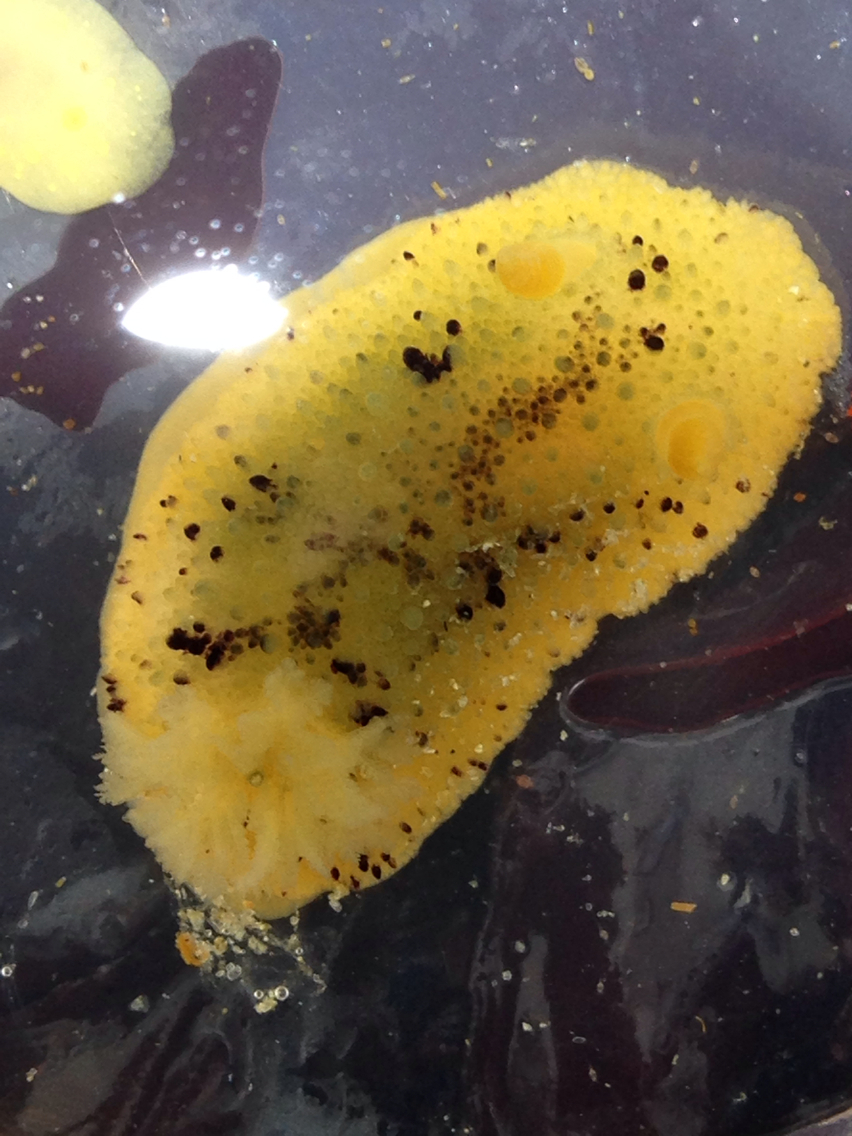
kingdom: Animalia
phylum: Mollusca
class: Gastropoda
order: Nudibranchia
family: Dorididae
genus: Doris
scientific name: Doris montereyensis
